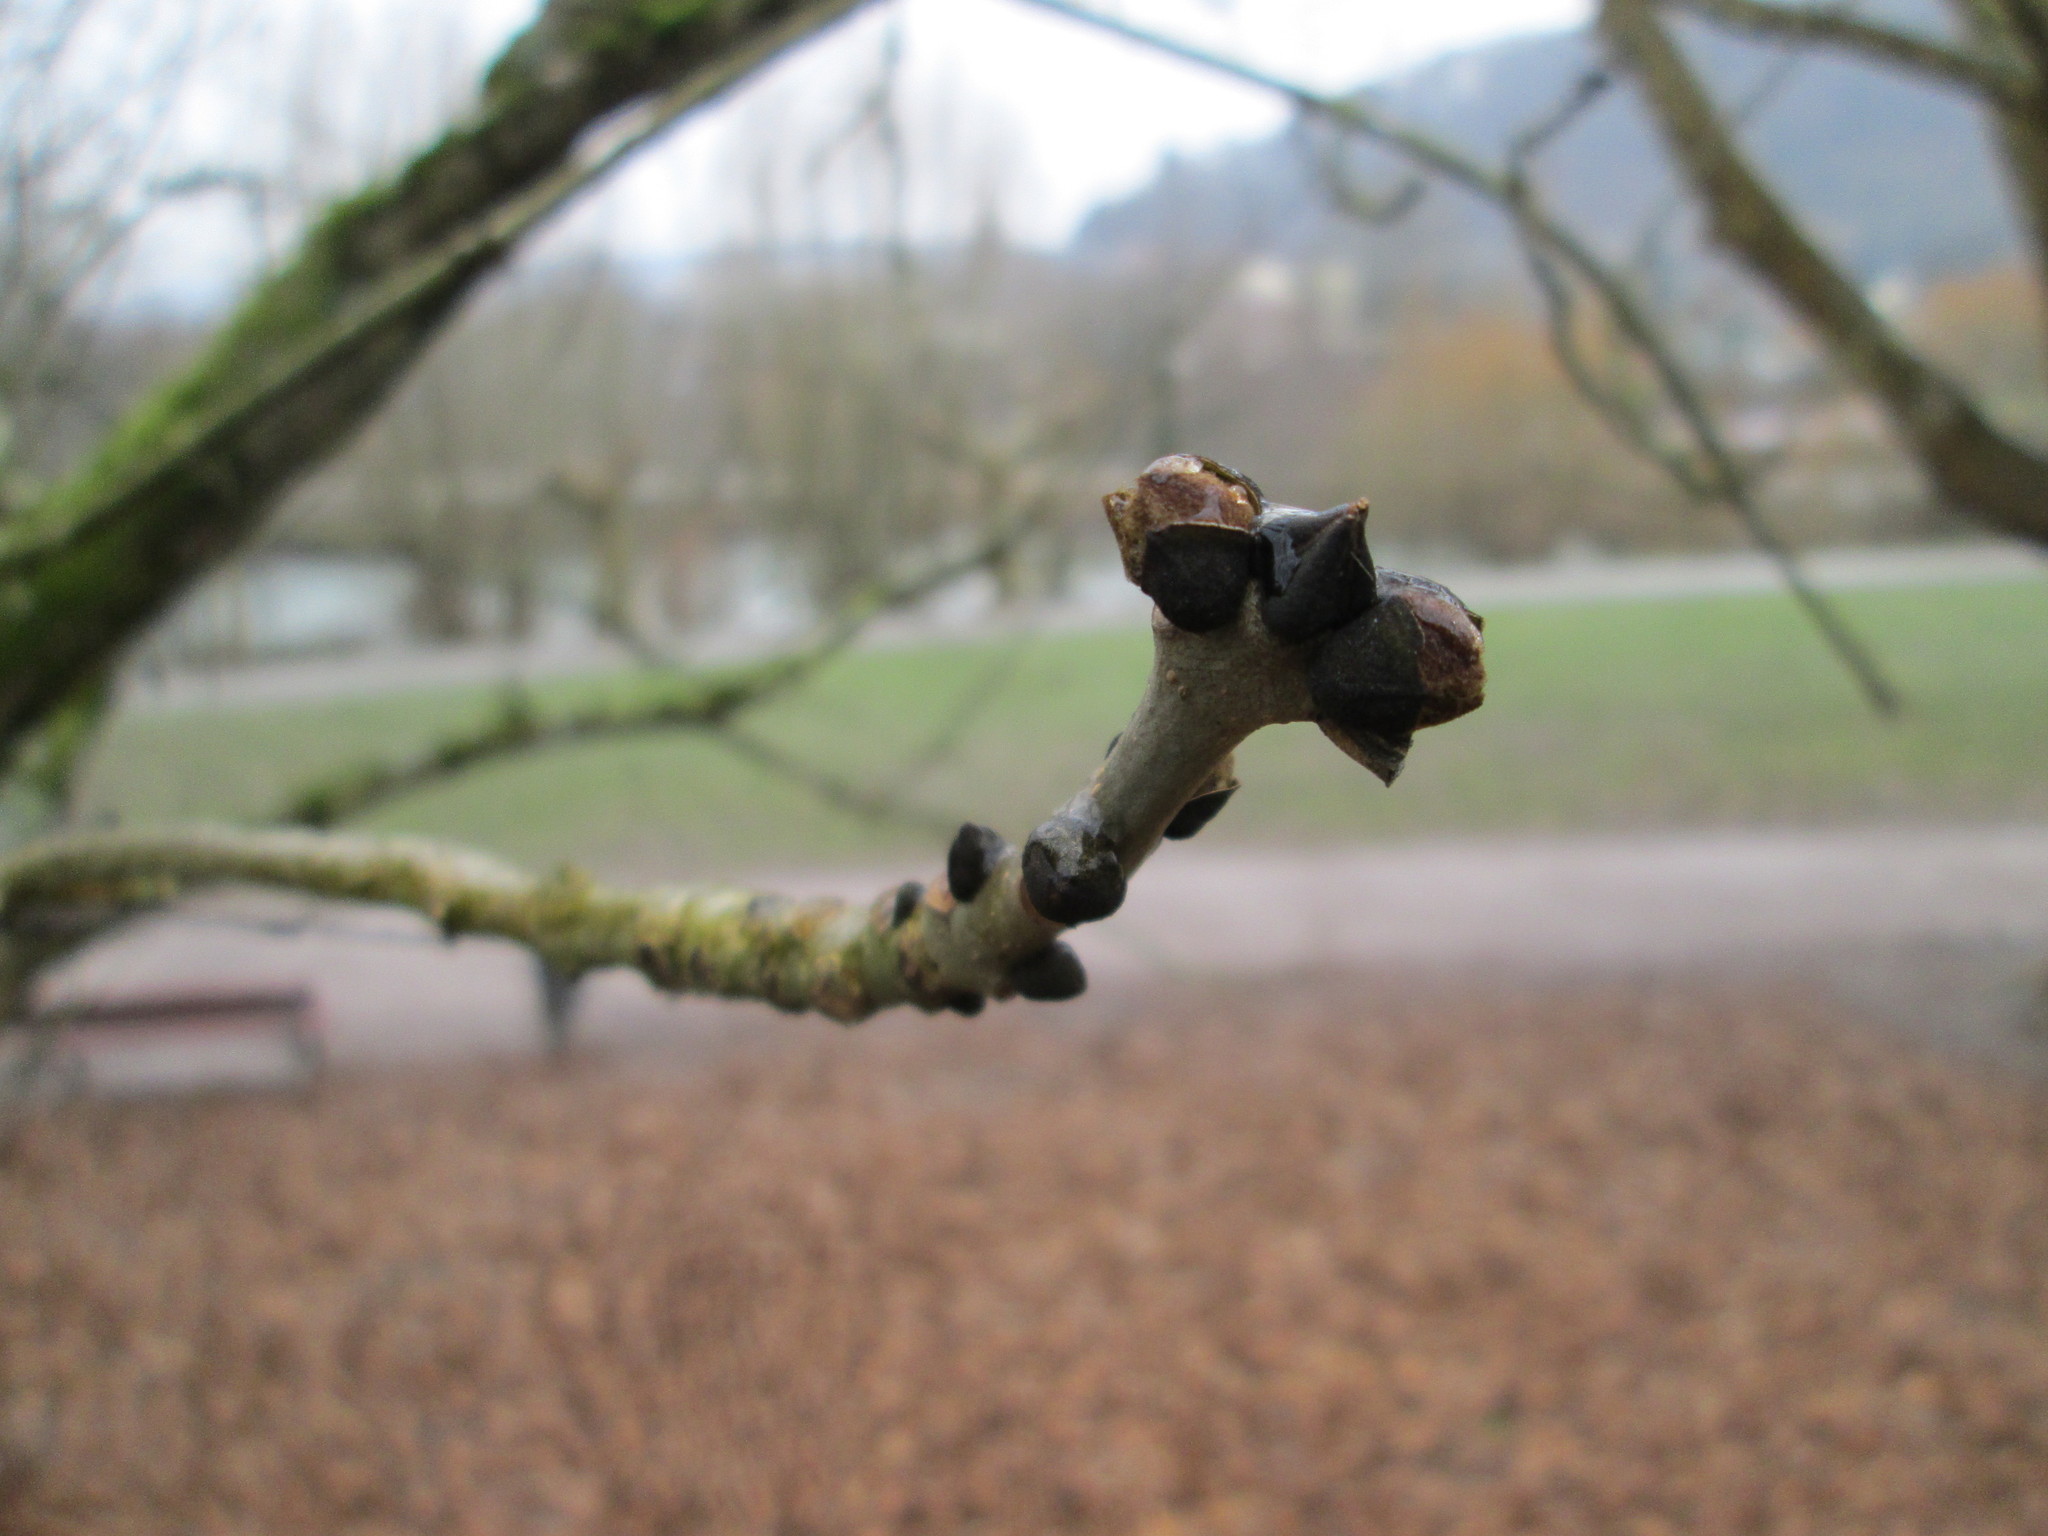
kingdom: Plantae
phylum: Tracheophyta
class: Magnoliopsida
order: Lamiales
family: Oleaceae
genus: Fraxinus
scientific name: Fraxinus excelsior
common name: European ash
